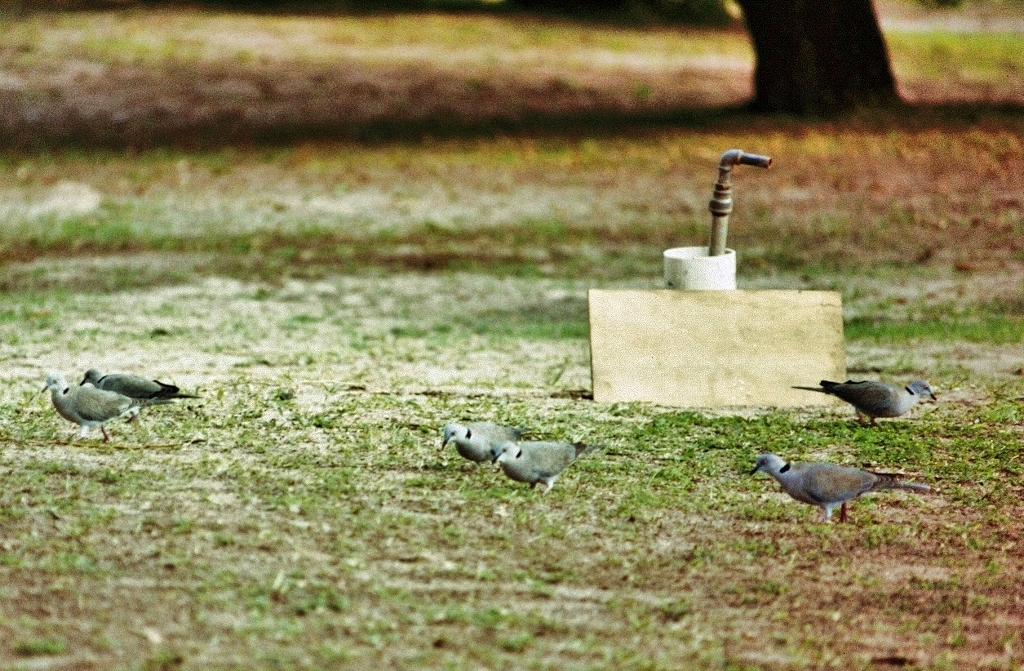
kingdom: Animalia
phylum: Chordata
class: Aves
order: Columbiformes
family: Columbidae
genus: Streptopelia
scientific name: Streptopelia decipiens
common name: Mourning collared dove
